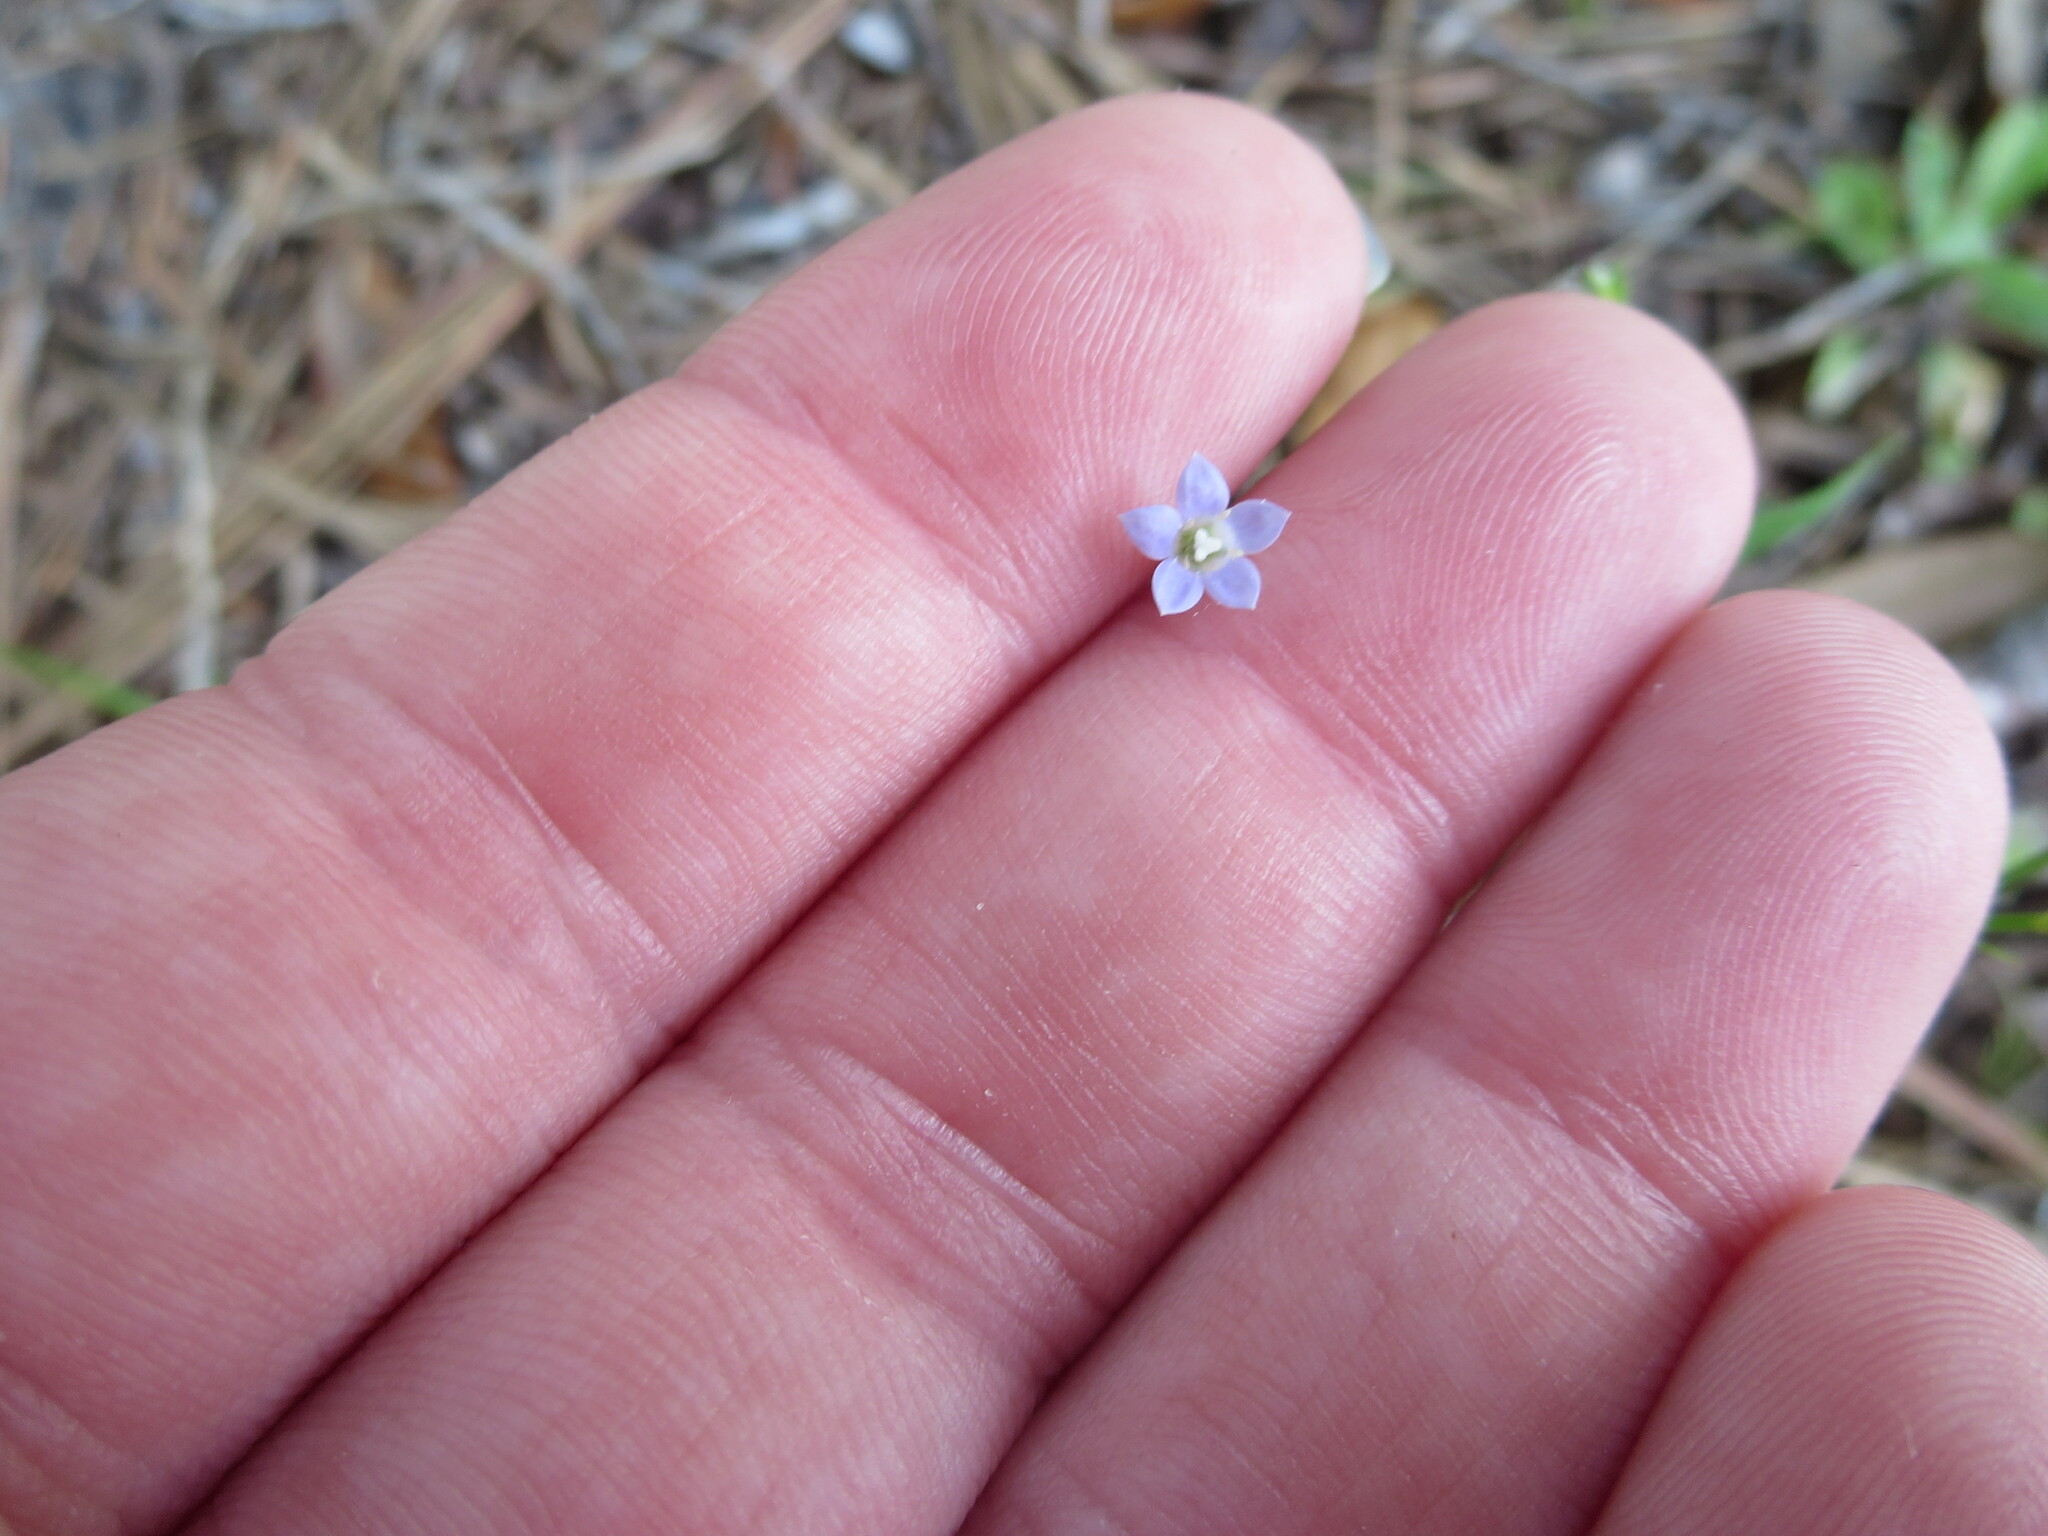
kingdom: Plantae
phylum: Tracheophyta
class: Magnoliopsida
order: Asterales
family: Campanulaceae
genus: Wahlenbergia
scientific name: Wahlenbergia marginata
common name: Southern rockbell
